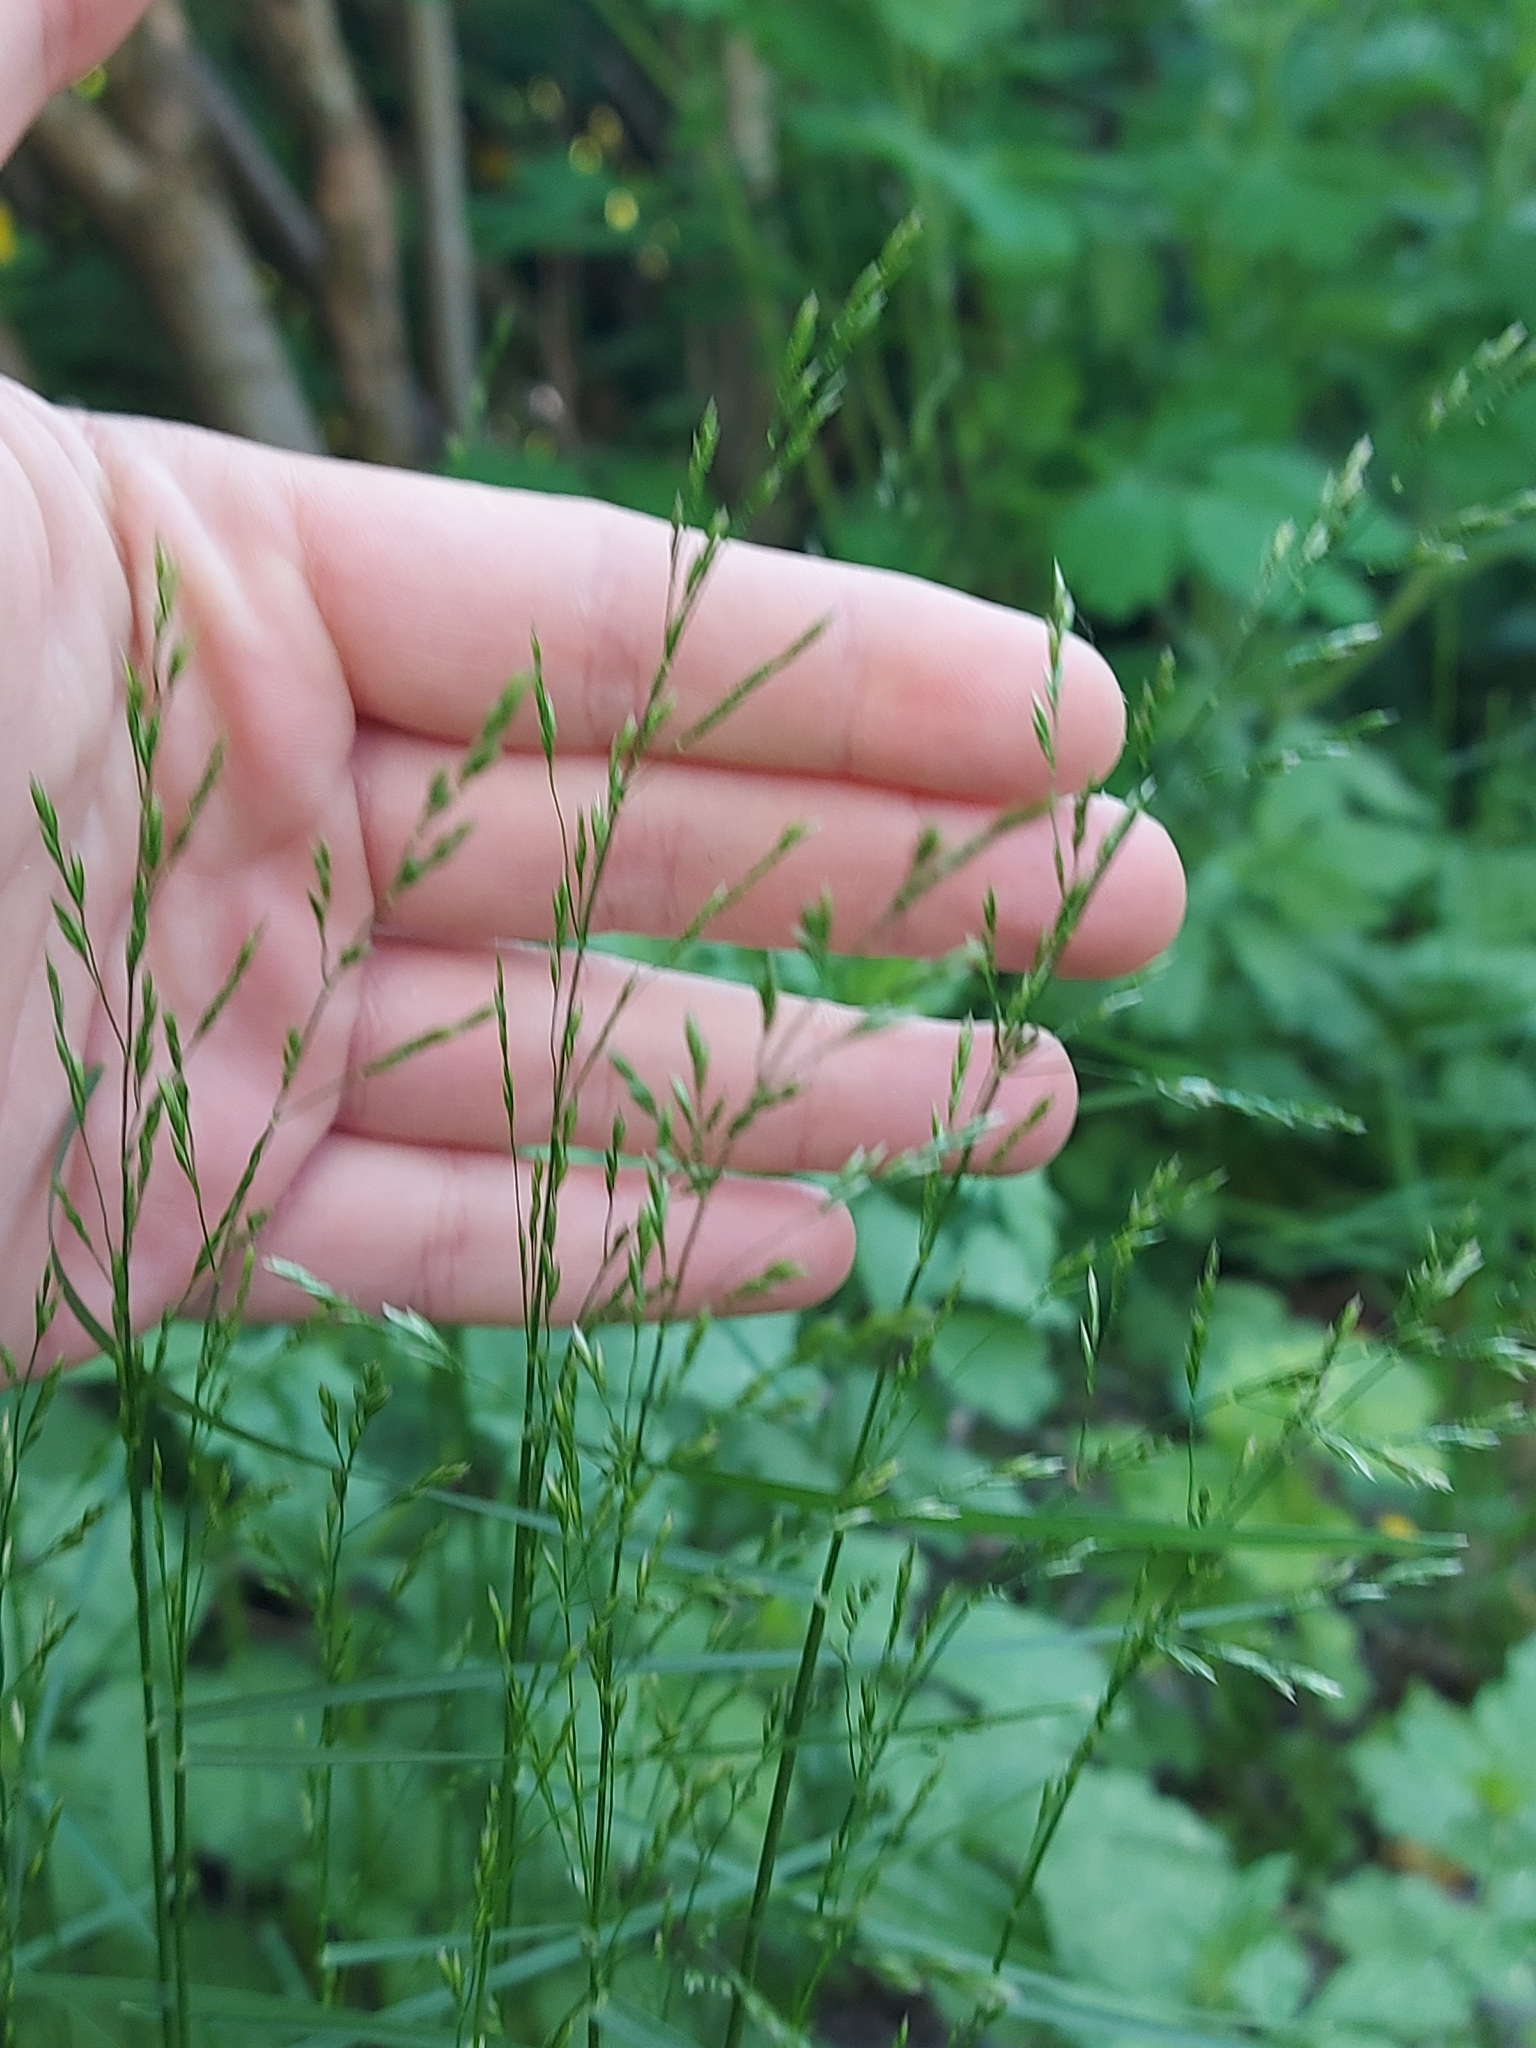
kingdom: Plantae
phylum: Tracheophyta
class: Liliopsida
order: Poales
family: Poaceae
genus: Poa
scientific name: Poa nemoralis
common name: Wood bluegrass
